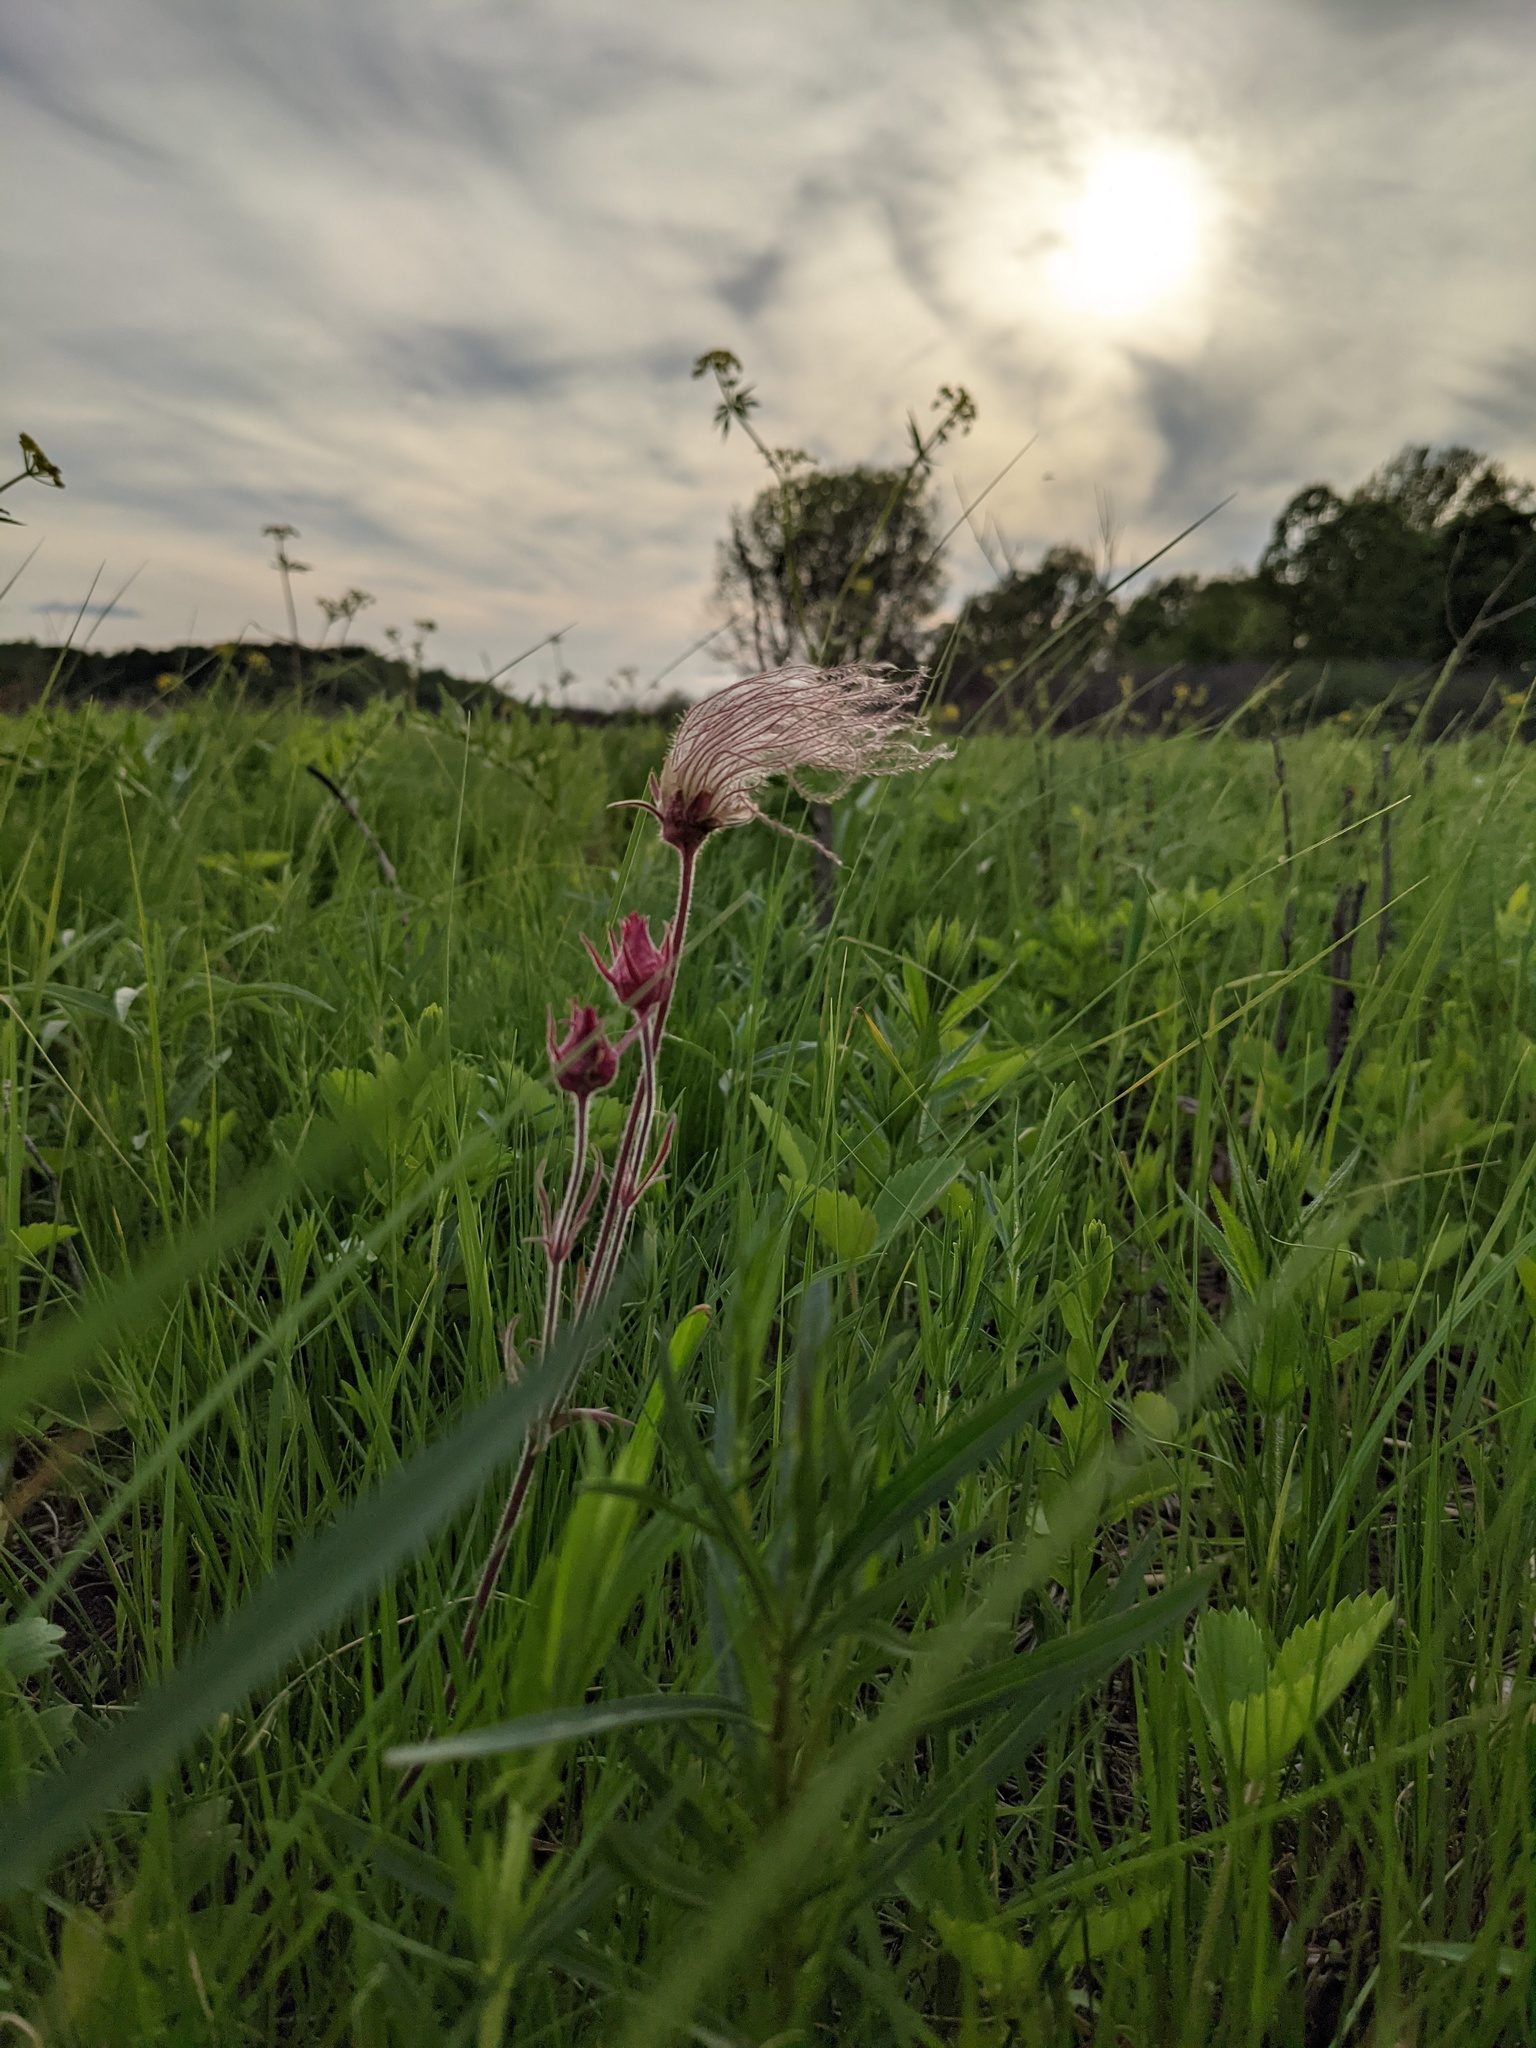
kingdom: Plantae
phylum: Tracheophyta
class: Magnoliopsida
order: Rosales
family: Rosaceae
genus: Geum
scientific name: Geum triflorum
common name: Old man's whiskers
